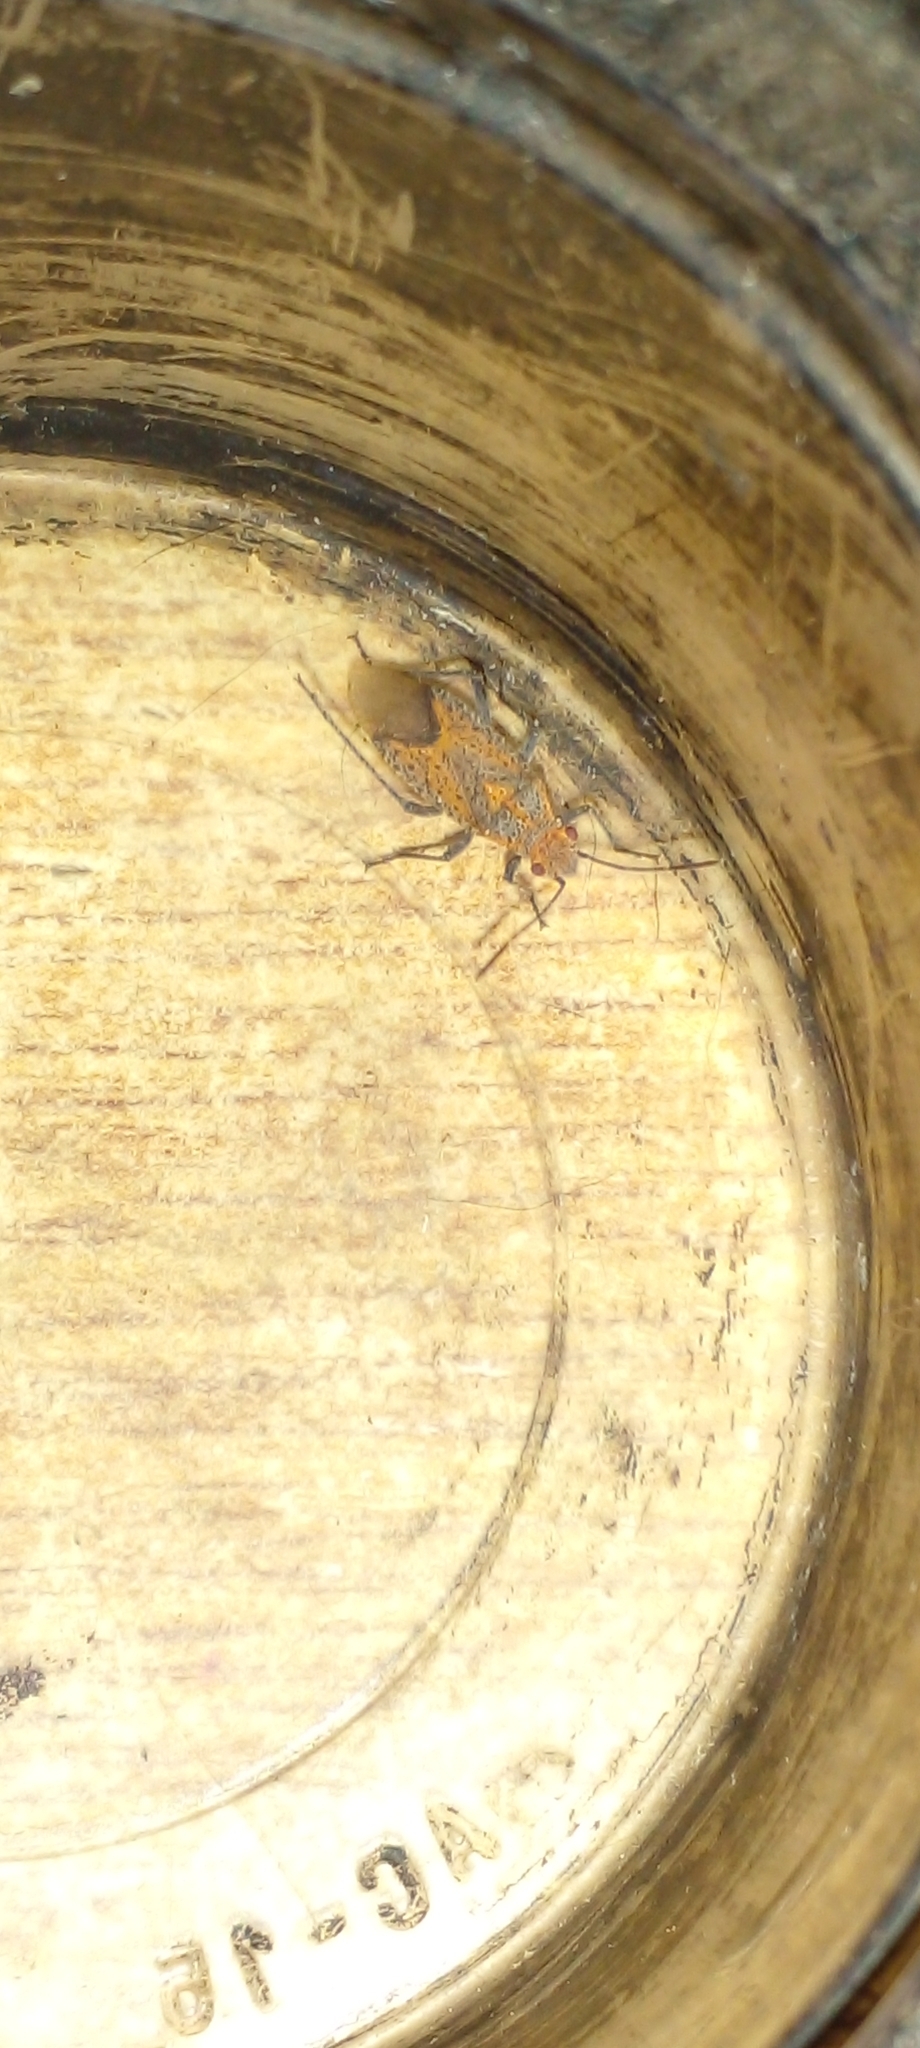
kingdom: Animalia
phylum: Arthropoda
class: Insecta
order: Hemiptera
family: Rhopalidae
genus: Jadera
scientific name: Jadera choprai
